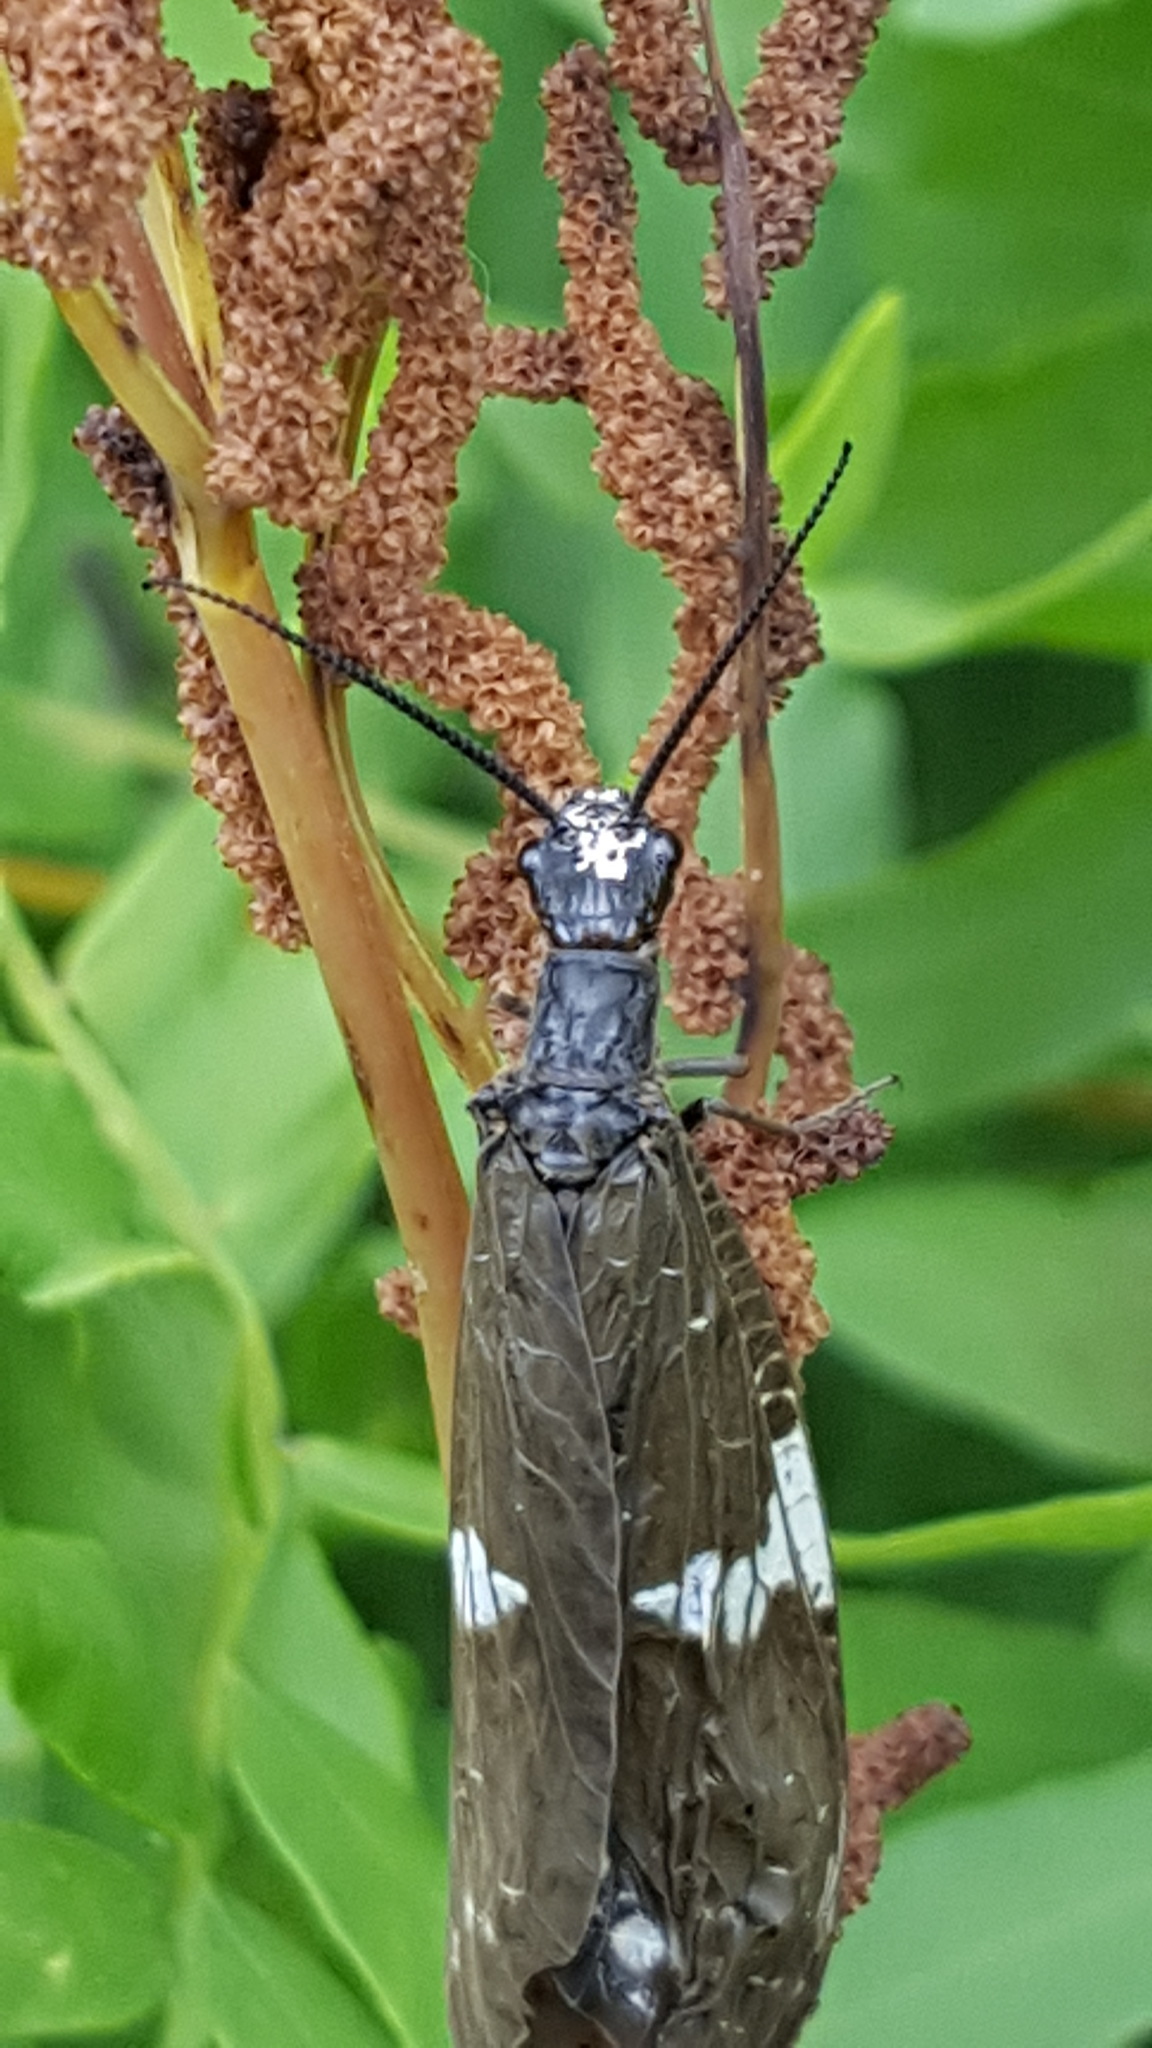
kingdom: Animalia
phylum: Arthropoda
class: Insecta
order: Megaloptera
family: Corydalidae
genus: Nigronia
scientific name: Nigronia serricornis
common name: Serrate dark fishfly
